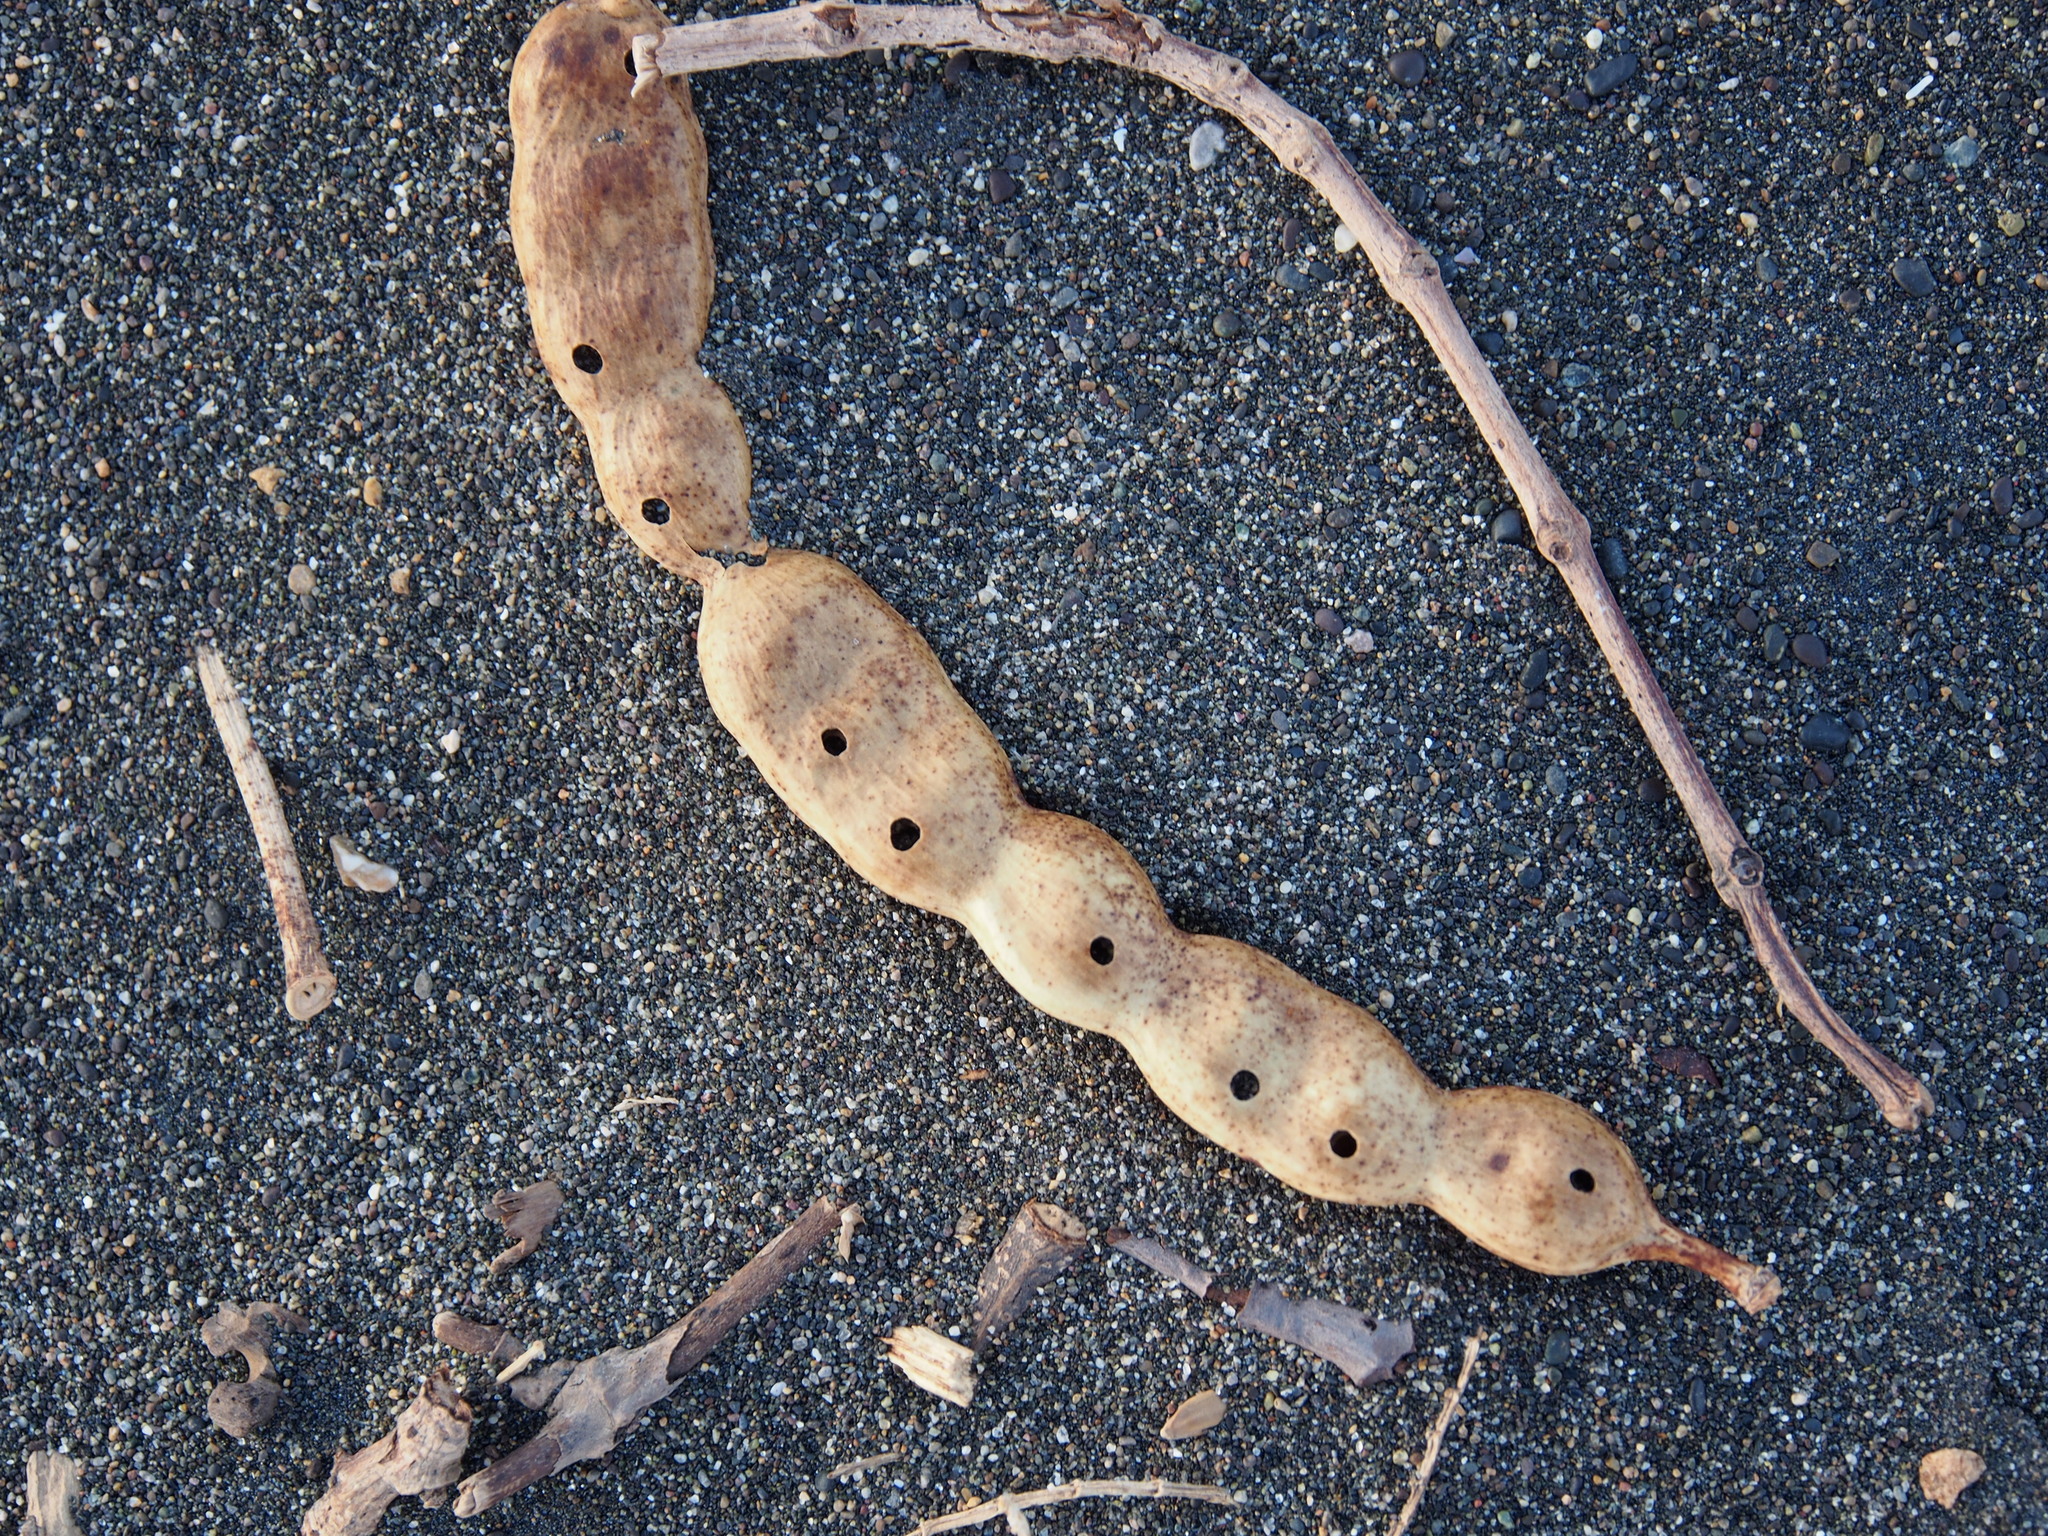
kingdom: Plantae
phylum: Tracheophyta
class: Magnoliopsida
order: Fabales
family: Fabaceae
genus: Prosopis
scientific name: Prosopis juliflora
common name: Mesquite
